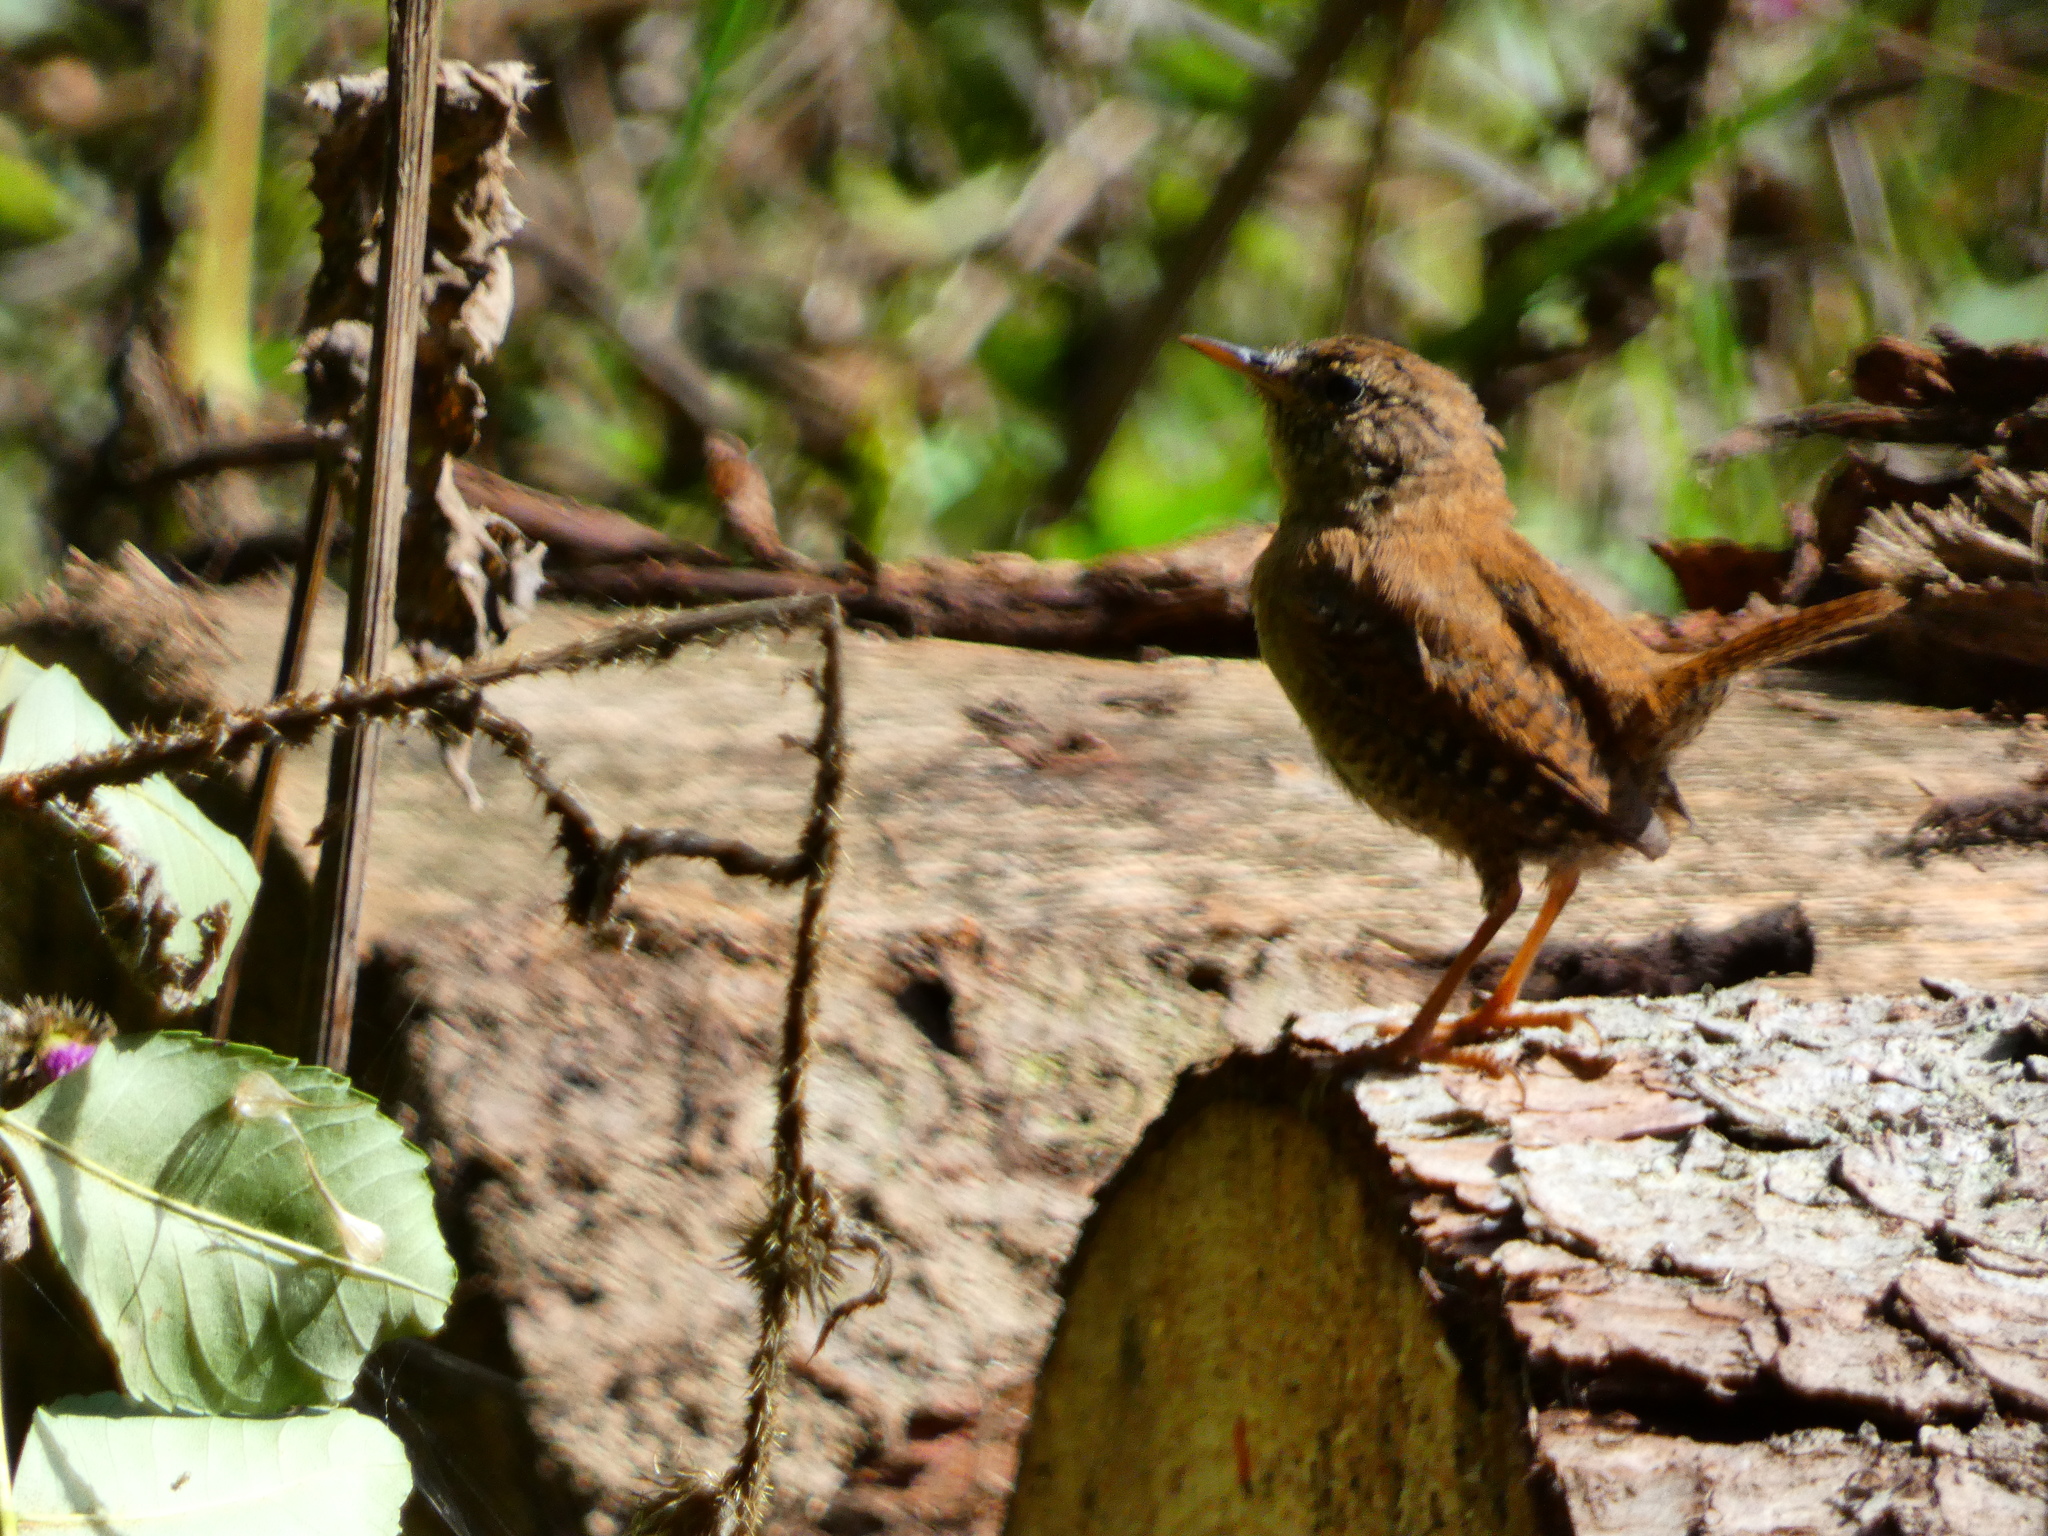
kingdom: Animalia
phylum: Chordata
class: Aves
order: Passeriformes
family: Troglodytidae
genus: Troglodytes
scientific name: Troglodytes troglodytes
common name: Eurasian wren
